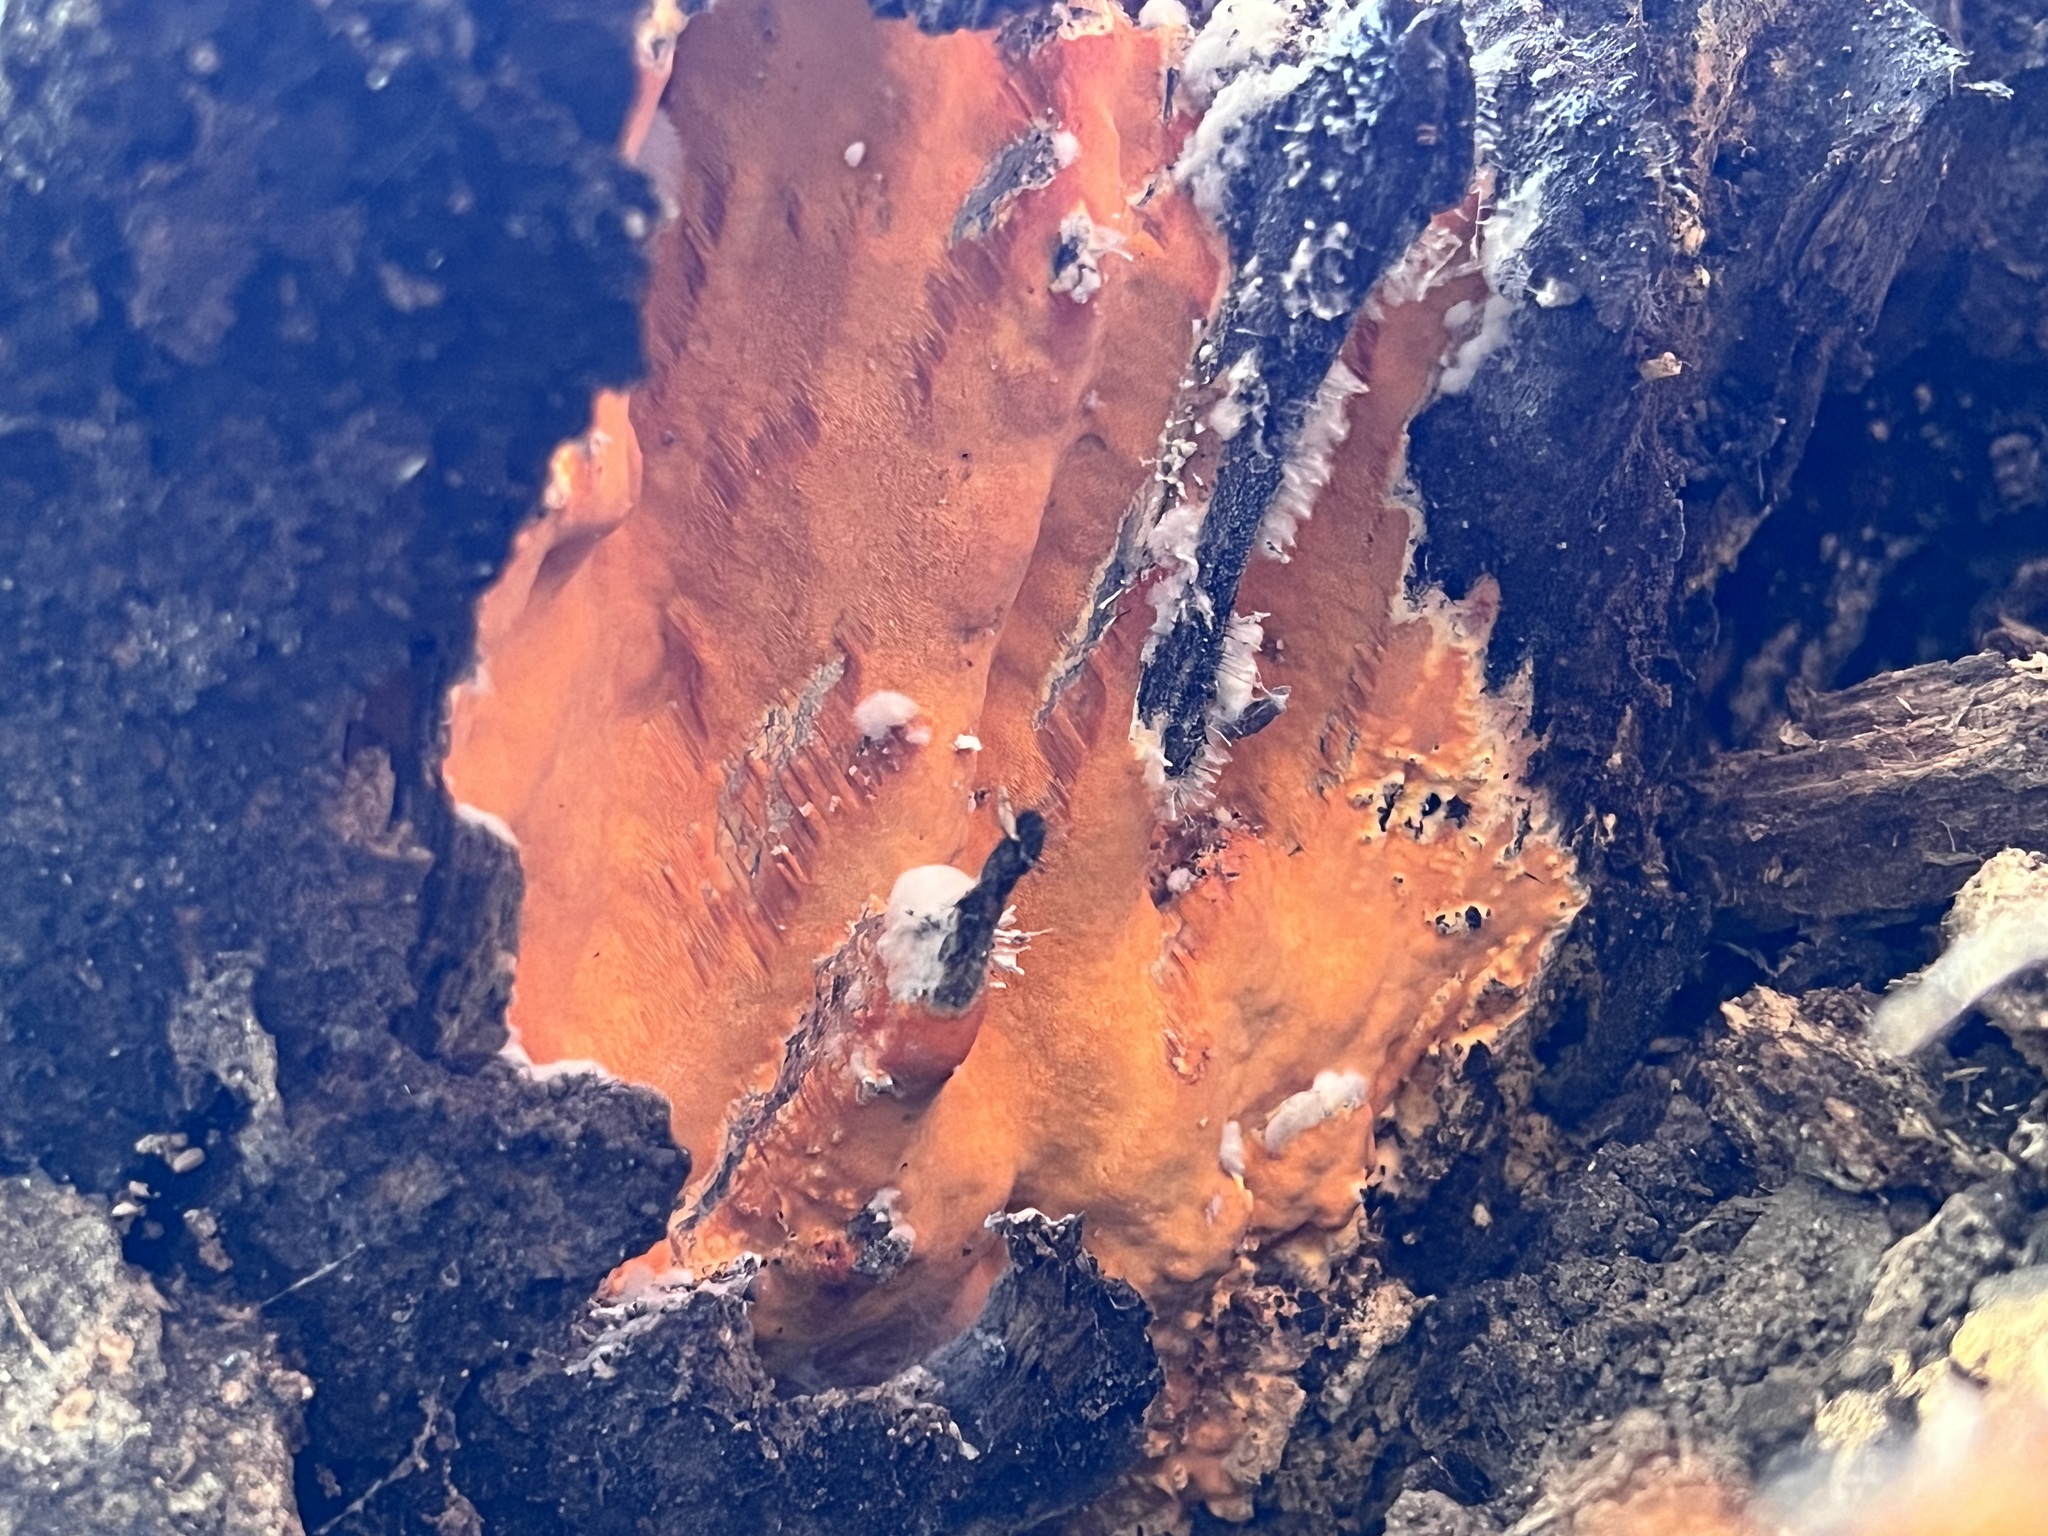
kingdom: Fungi
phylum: Basidiomycota
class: Agaricomycetes
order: Polyporales
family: Irpicaceae
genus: Ceriporia
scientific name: Ceriporia spissa
